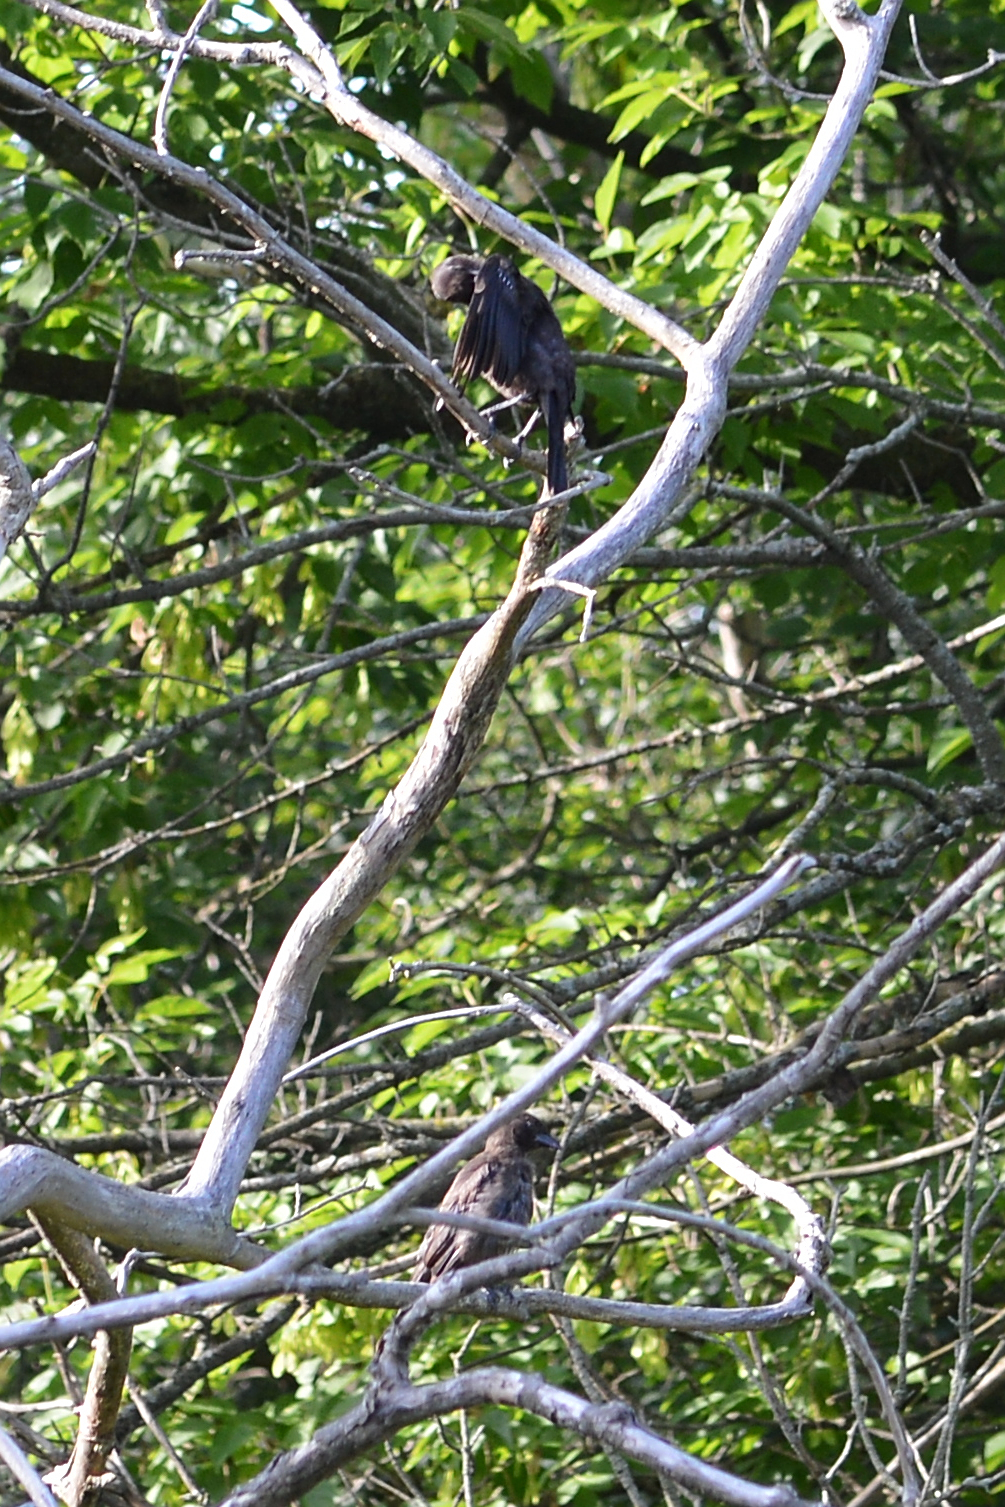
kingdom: Animalia
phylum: Chordata
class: Aves
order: Passeriformes
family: Icteridae
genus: Molothrus
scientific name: Molothrus ater
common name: Brown-headed cowbird
